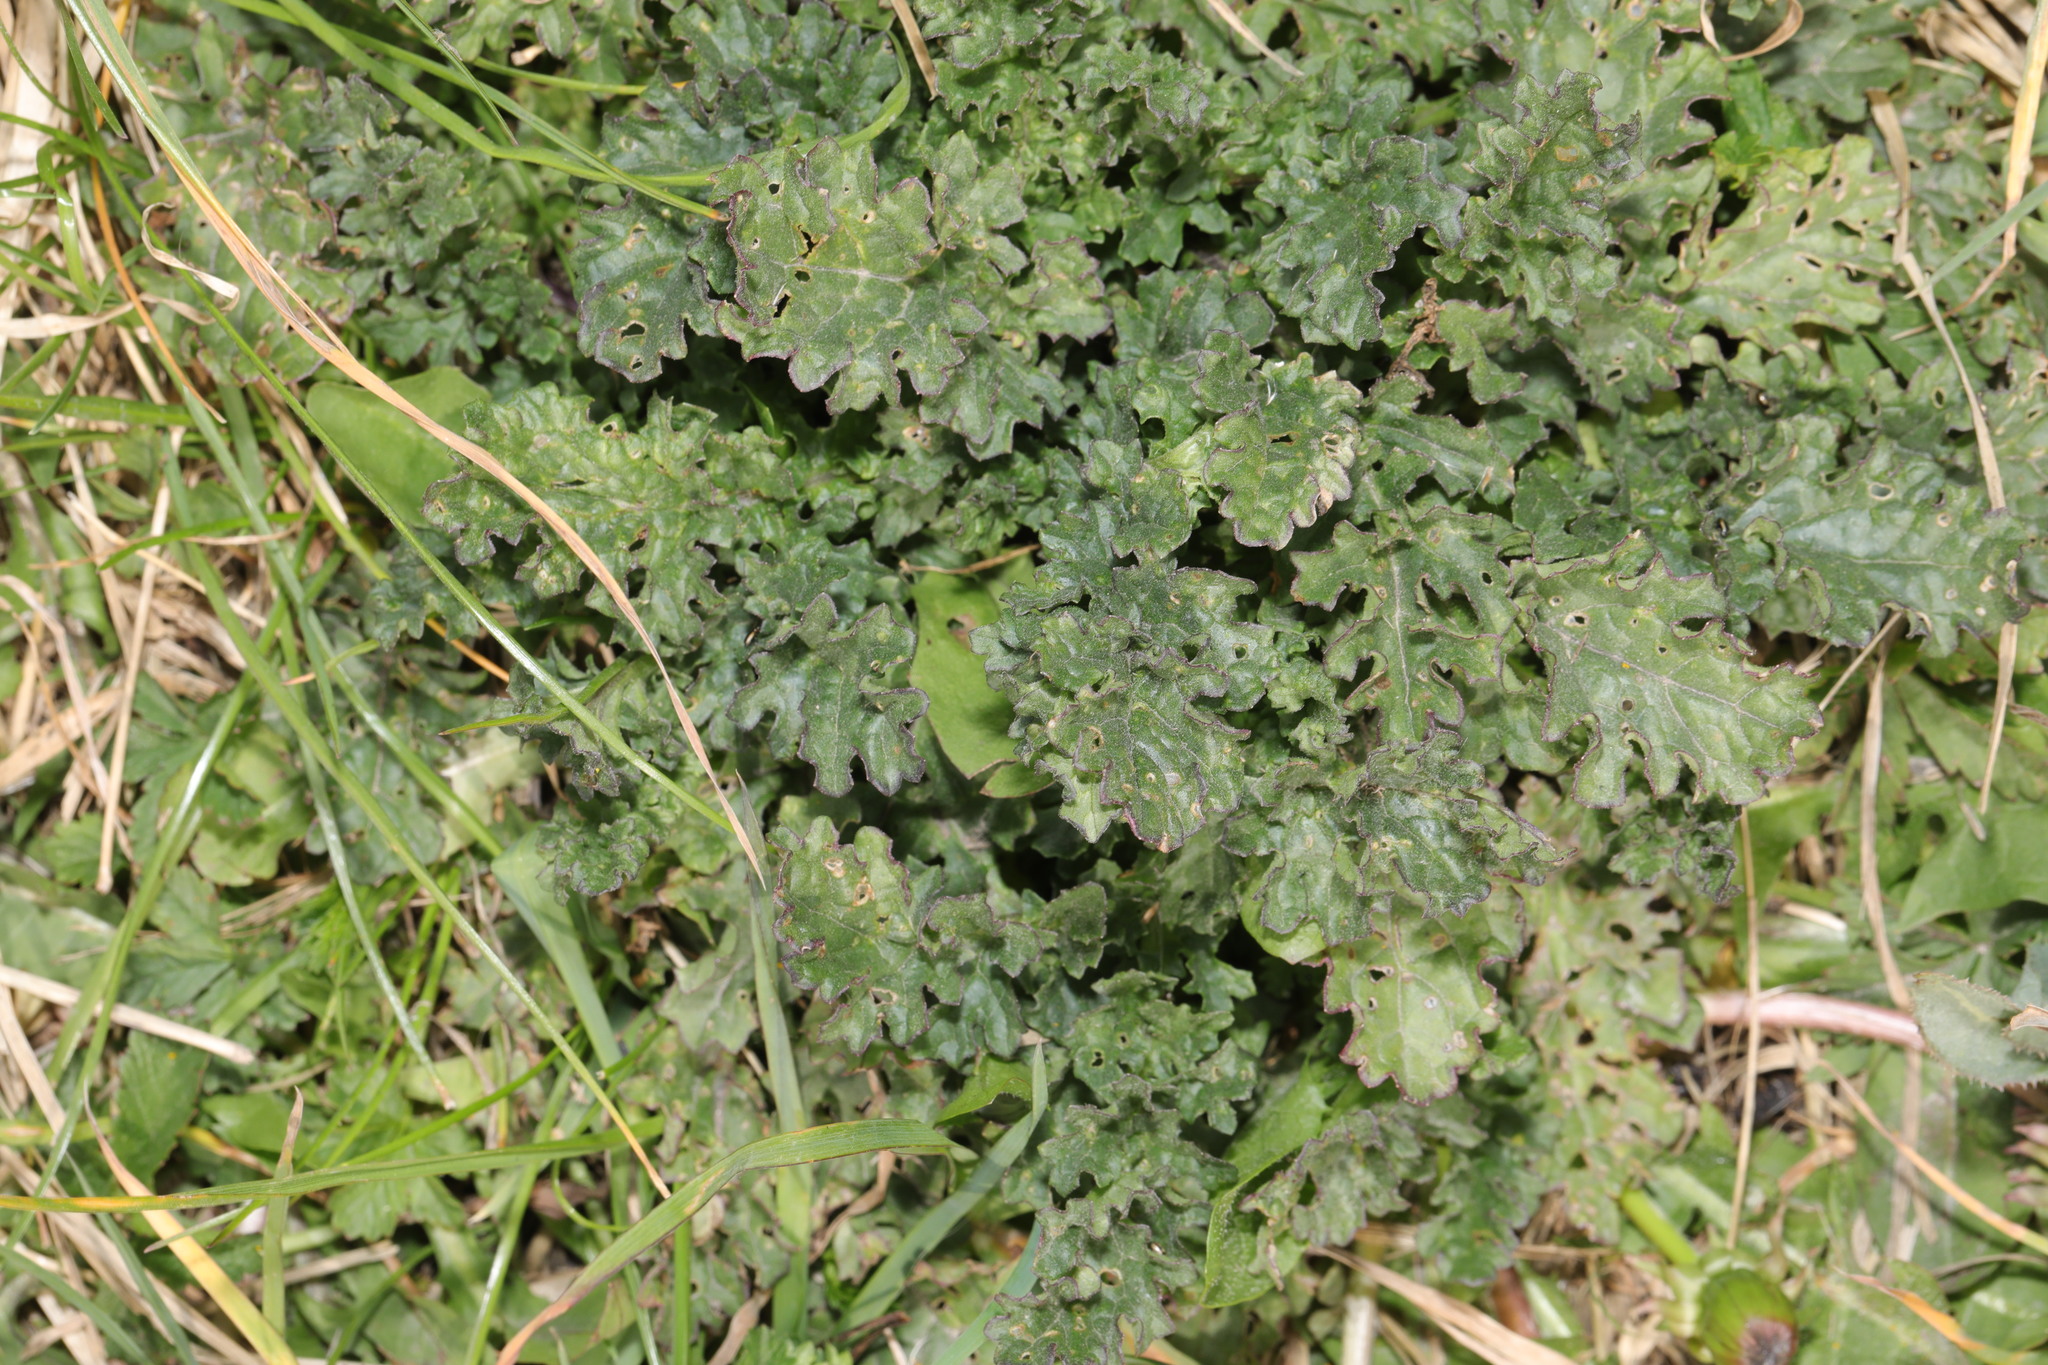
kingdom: Plantae
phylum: Tracheophyta
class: Magnoliopsida
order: Asterales
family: Asteraceae
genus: Jacobaea
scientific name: Jacobaea vulgaris
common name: Stinking willie
